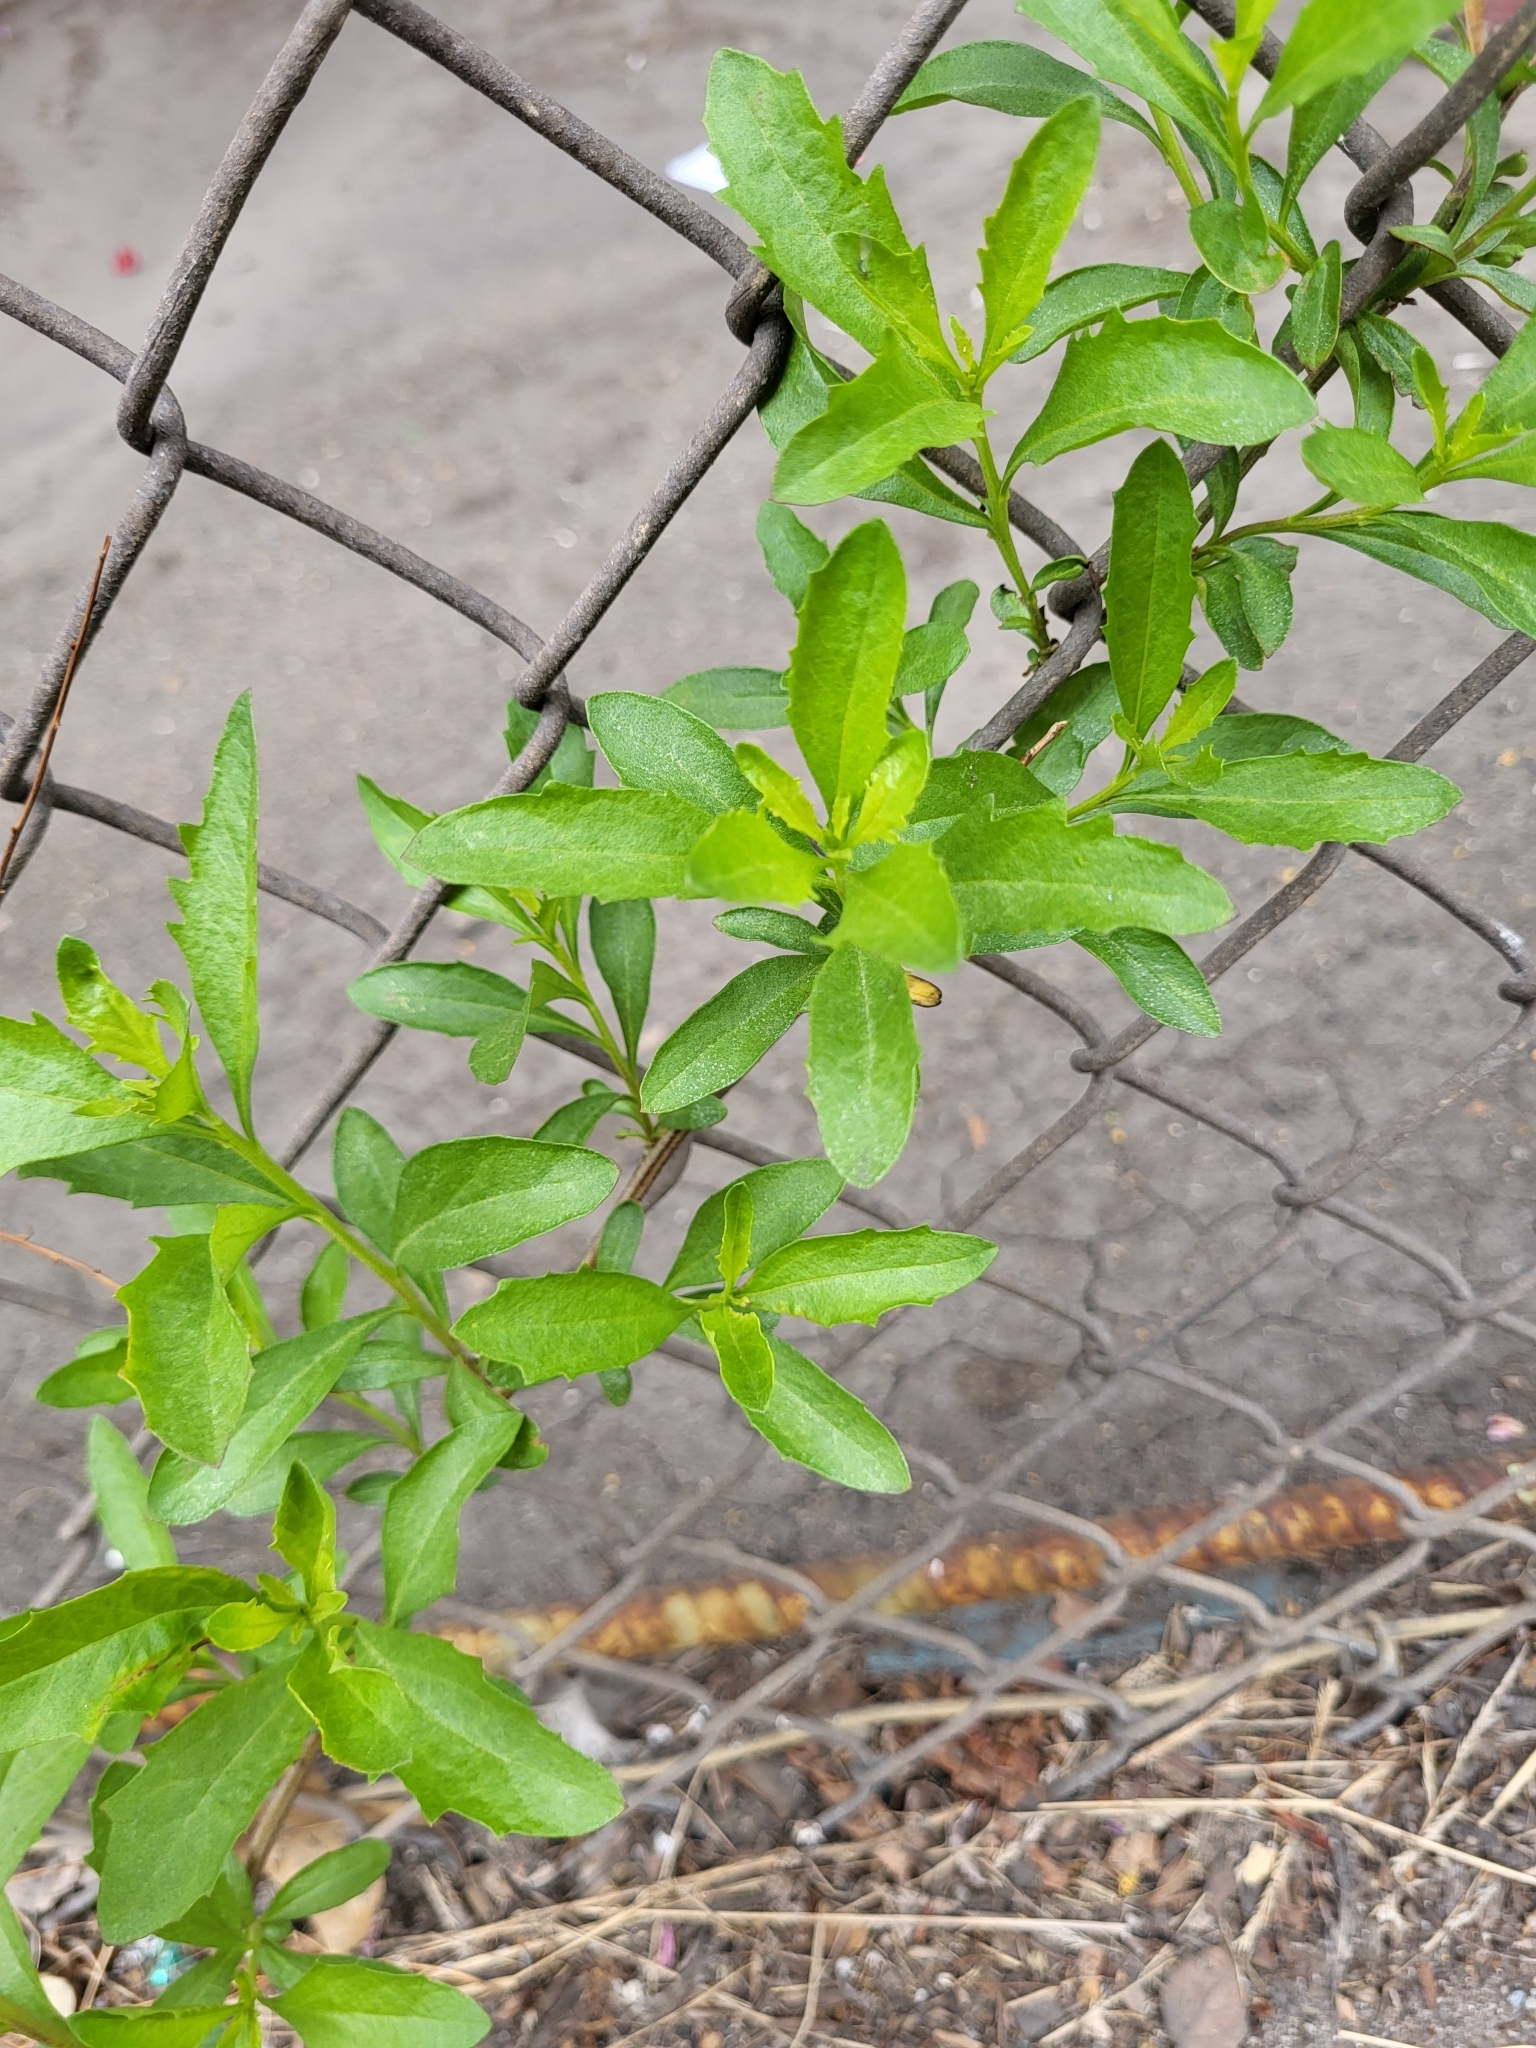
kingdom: Plantae
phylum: Tracheophyta
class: Magnoliopsida
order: Asterales
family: Asteraceae
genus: Baccharis
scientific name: Baccharis halimifolia
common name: Eastern baccharis
